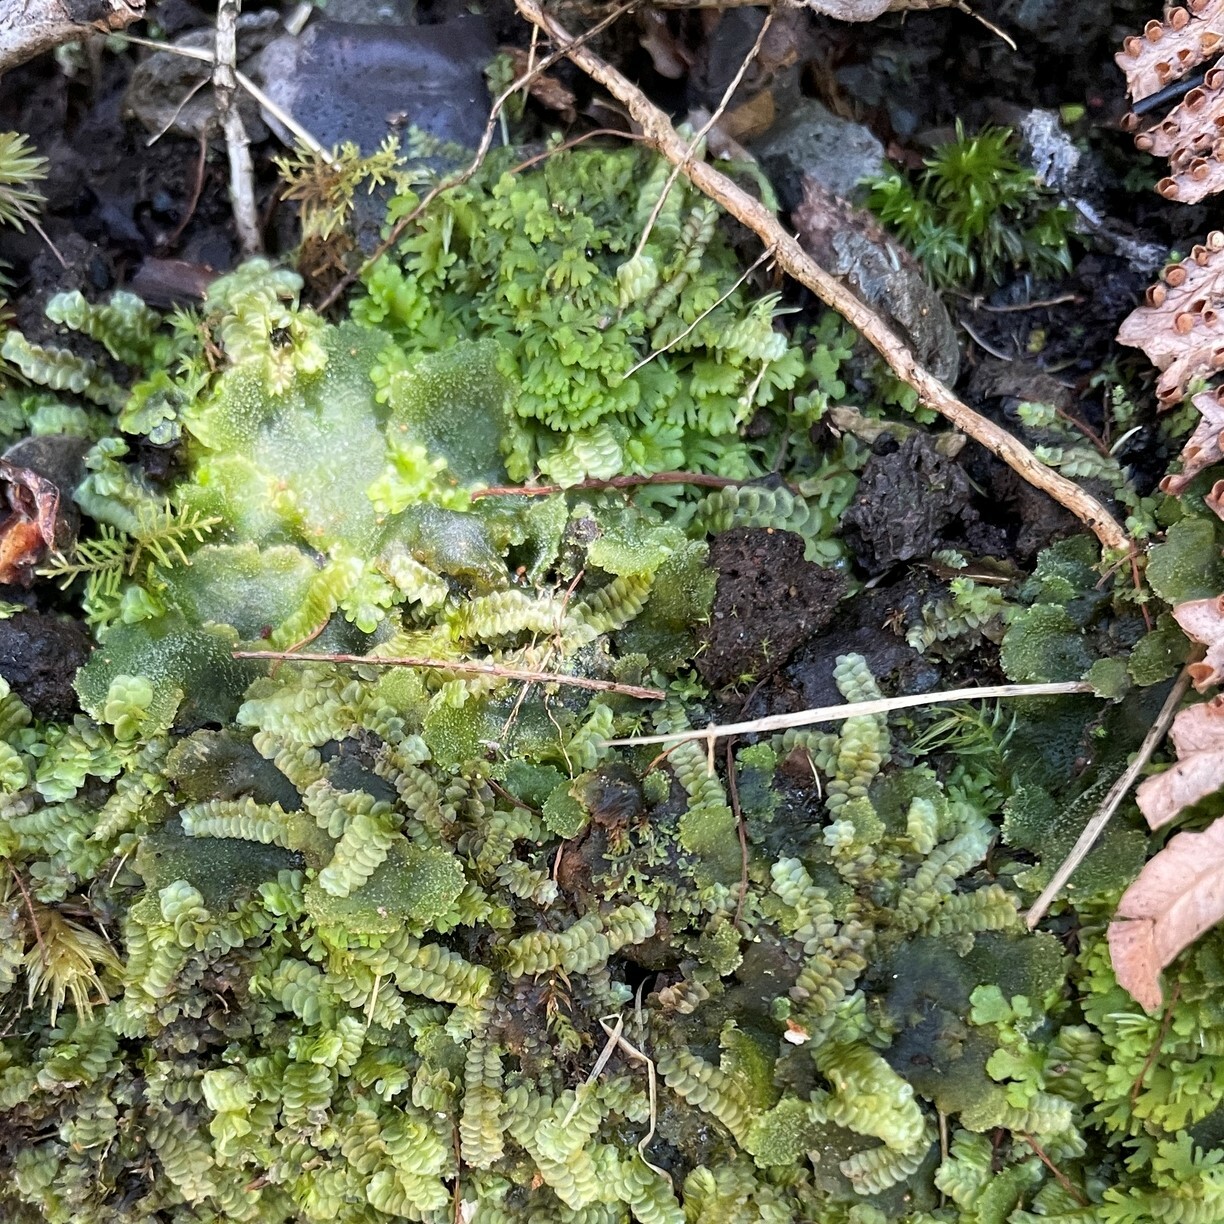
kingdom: Plantae
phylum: Anthocerotophyta
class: Anthocerotopsida
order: Dendrocerotales
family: Dendrocerotaceae
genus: Megaceros
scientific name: Megaceros flagellaris
